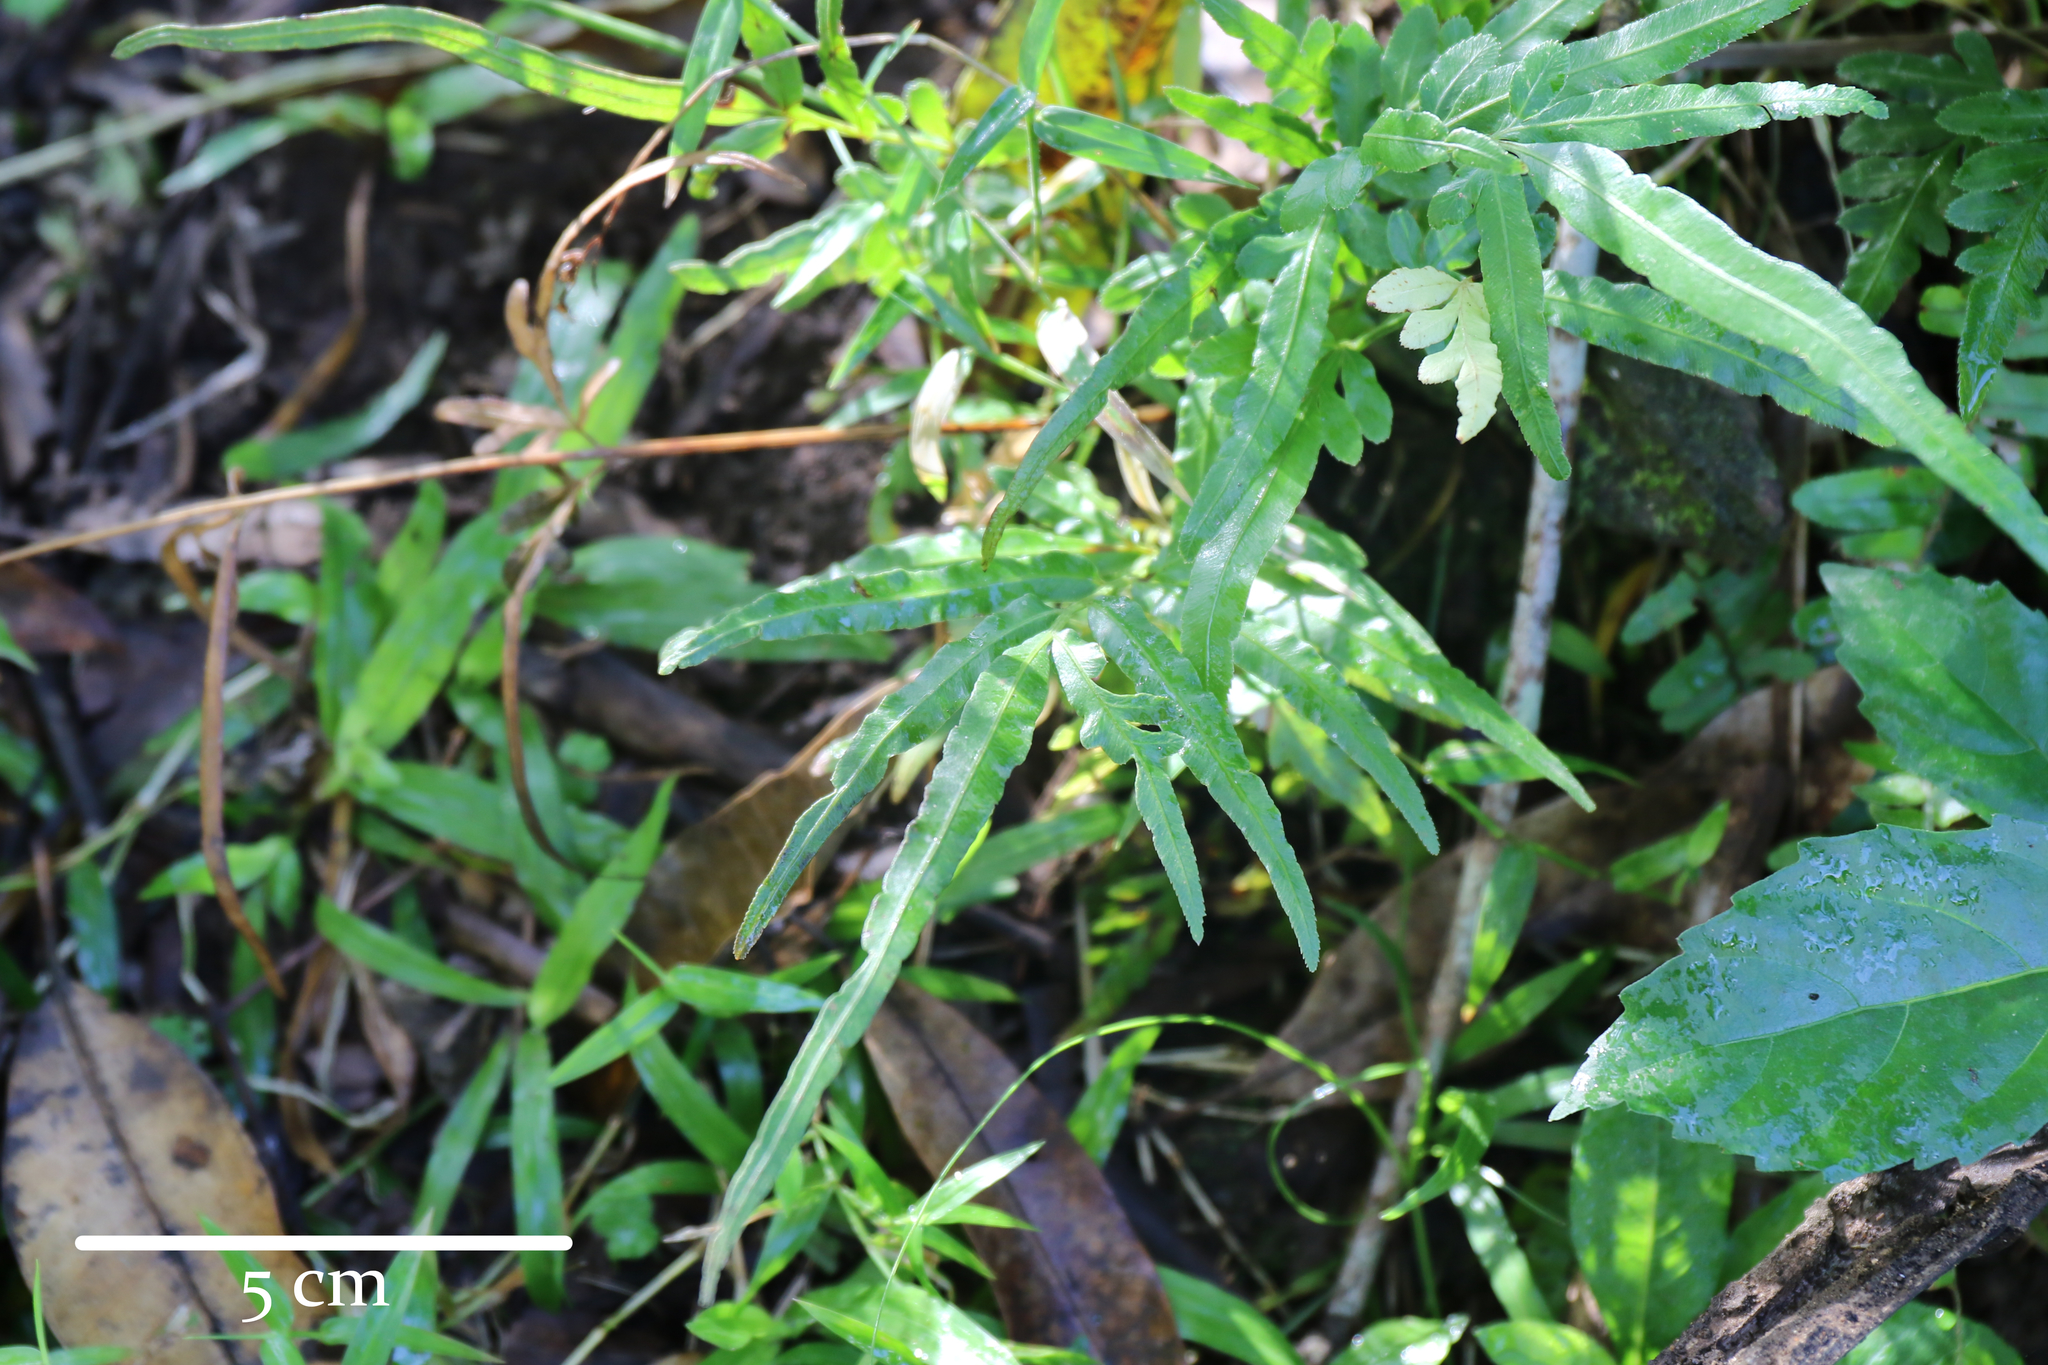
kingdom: Plantae
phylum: Tracheophyta
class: Polypodiopsida
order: Polypodiales
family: Pteridaceae
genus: Pteris
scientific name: Pteris ensiformis
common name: Sword brake
